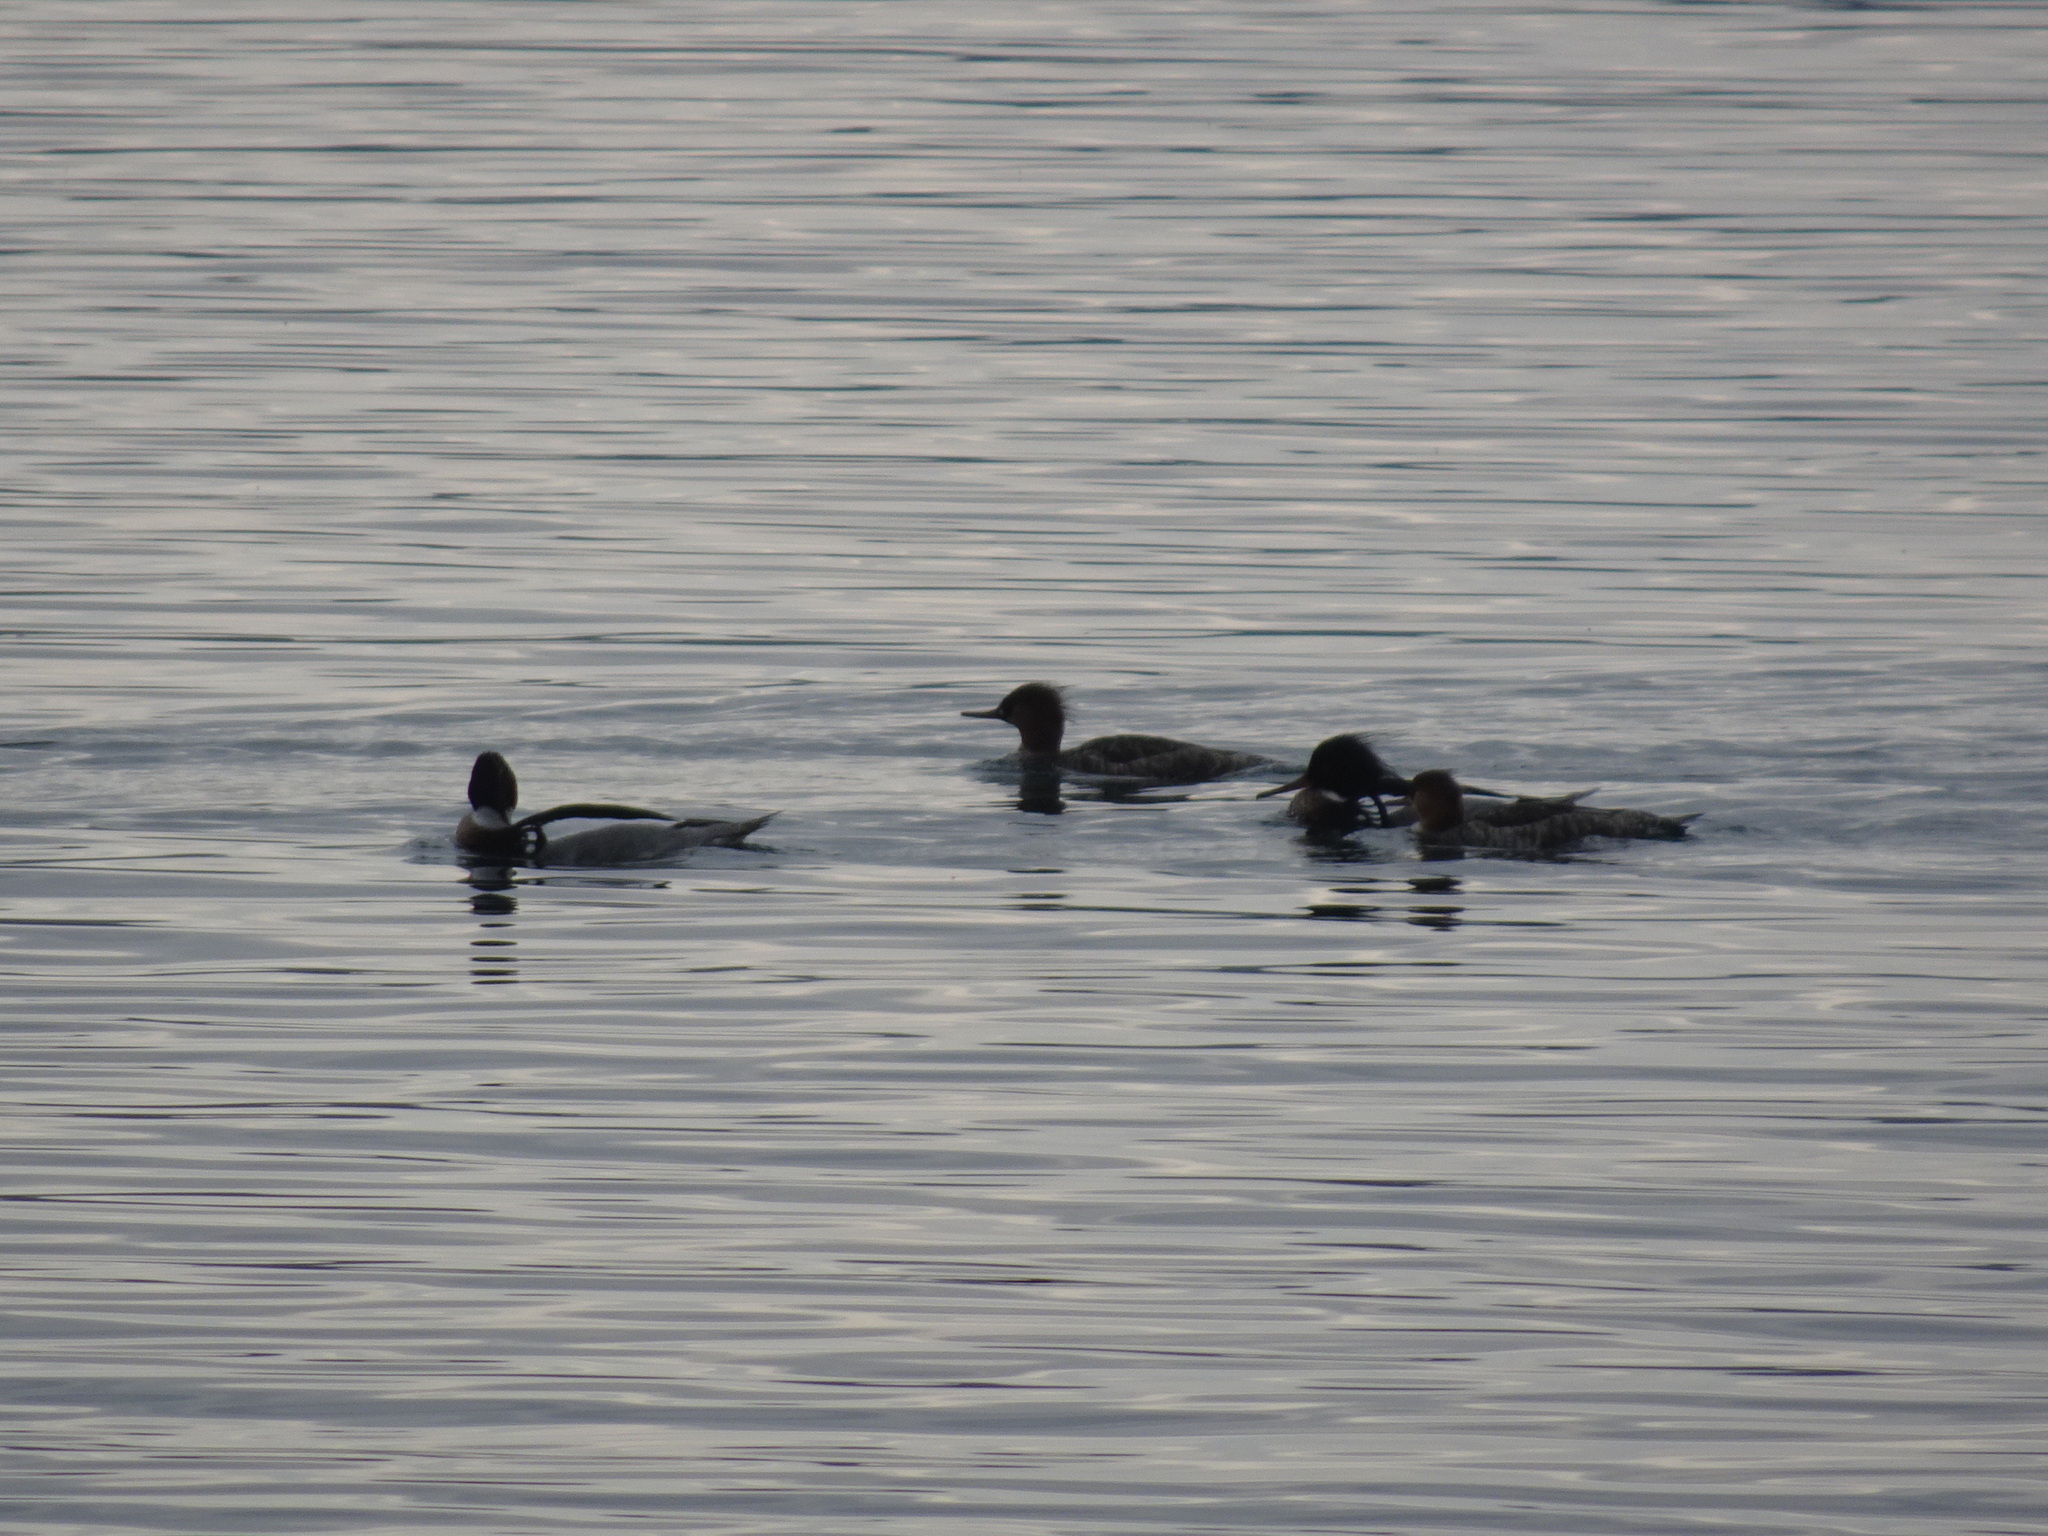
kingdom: Animalia
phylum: Chordata
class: Aves
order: Anseriformes
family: Anatidae
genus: Mergus
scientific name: Mergus serrator
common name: Red-breasted merganser
